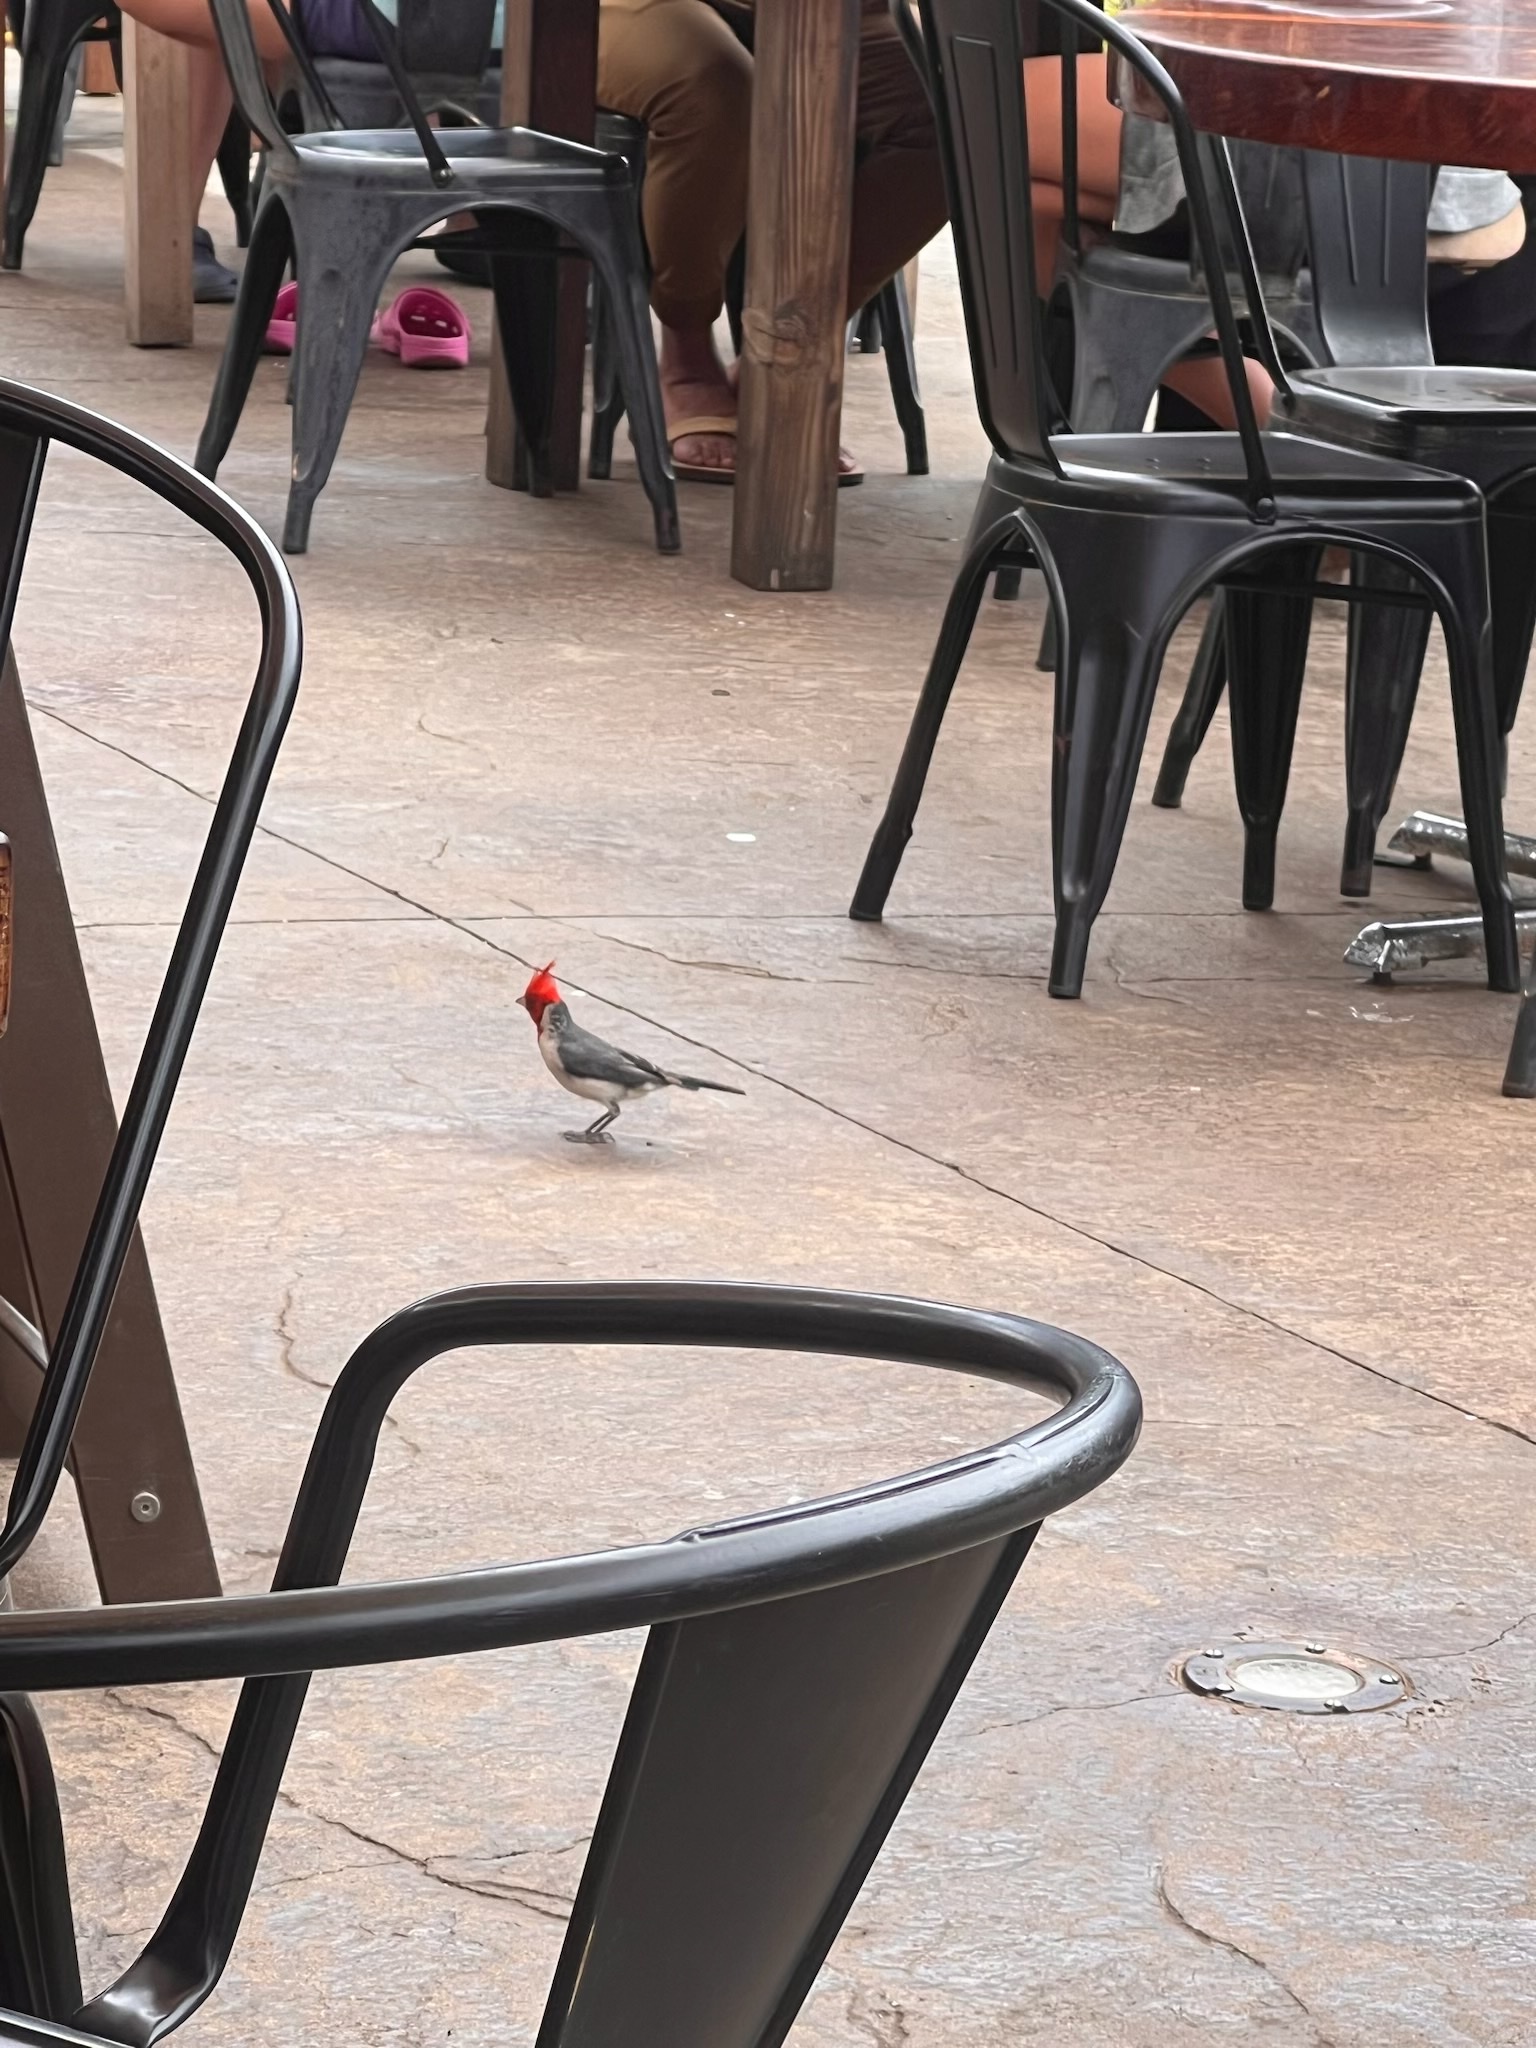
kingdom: Animalia
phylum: Chordata
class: Aves
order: Passeriformes
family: Thraupidae
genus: Paroaria
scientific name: Paroaria coronata
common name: Red-crested cardinal
